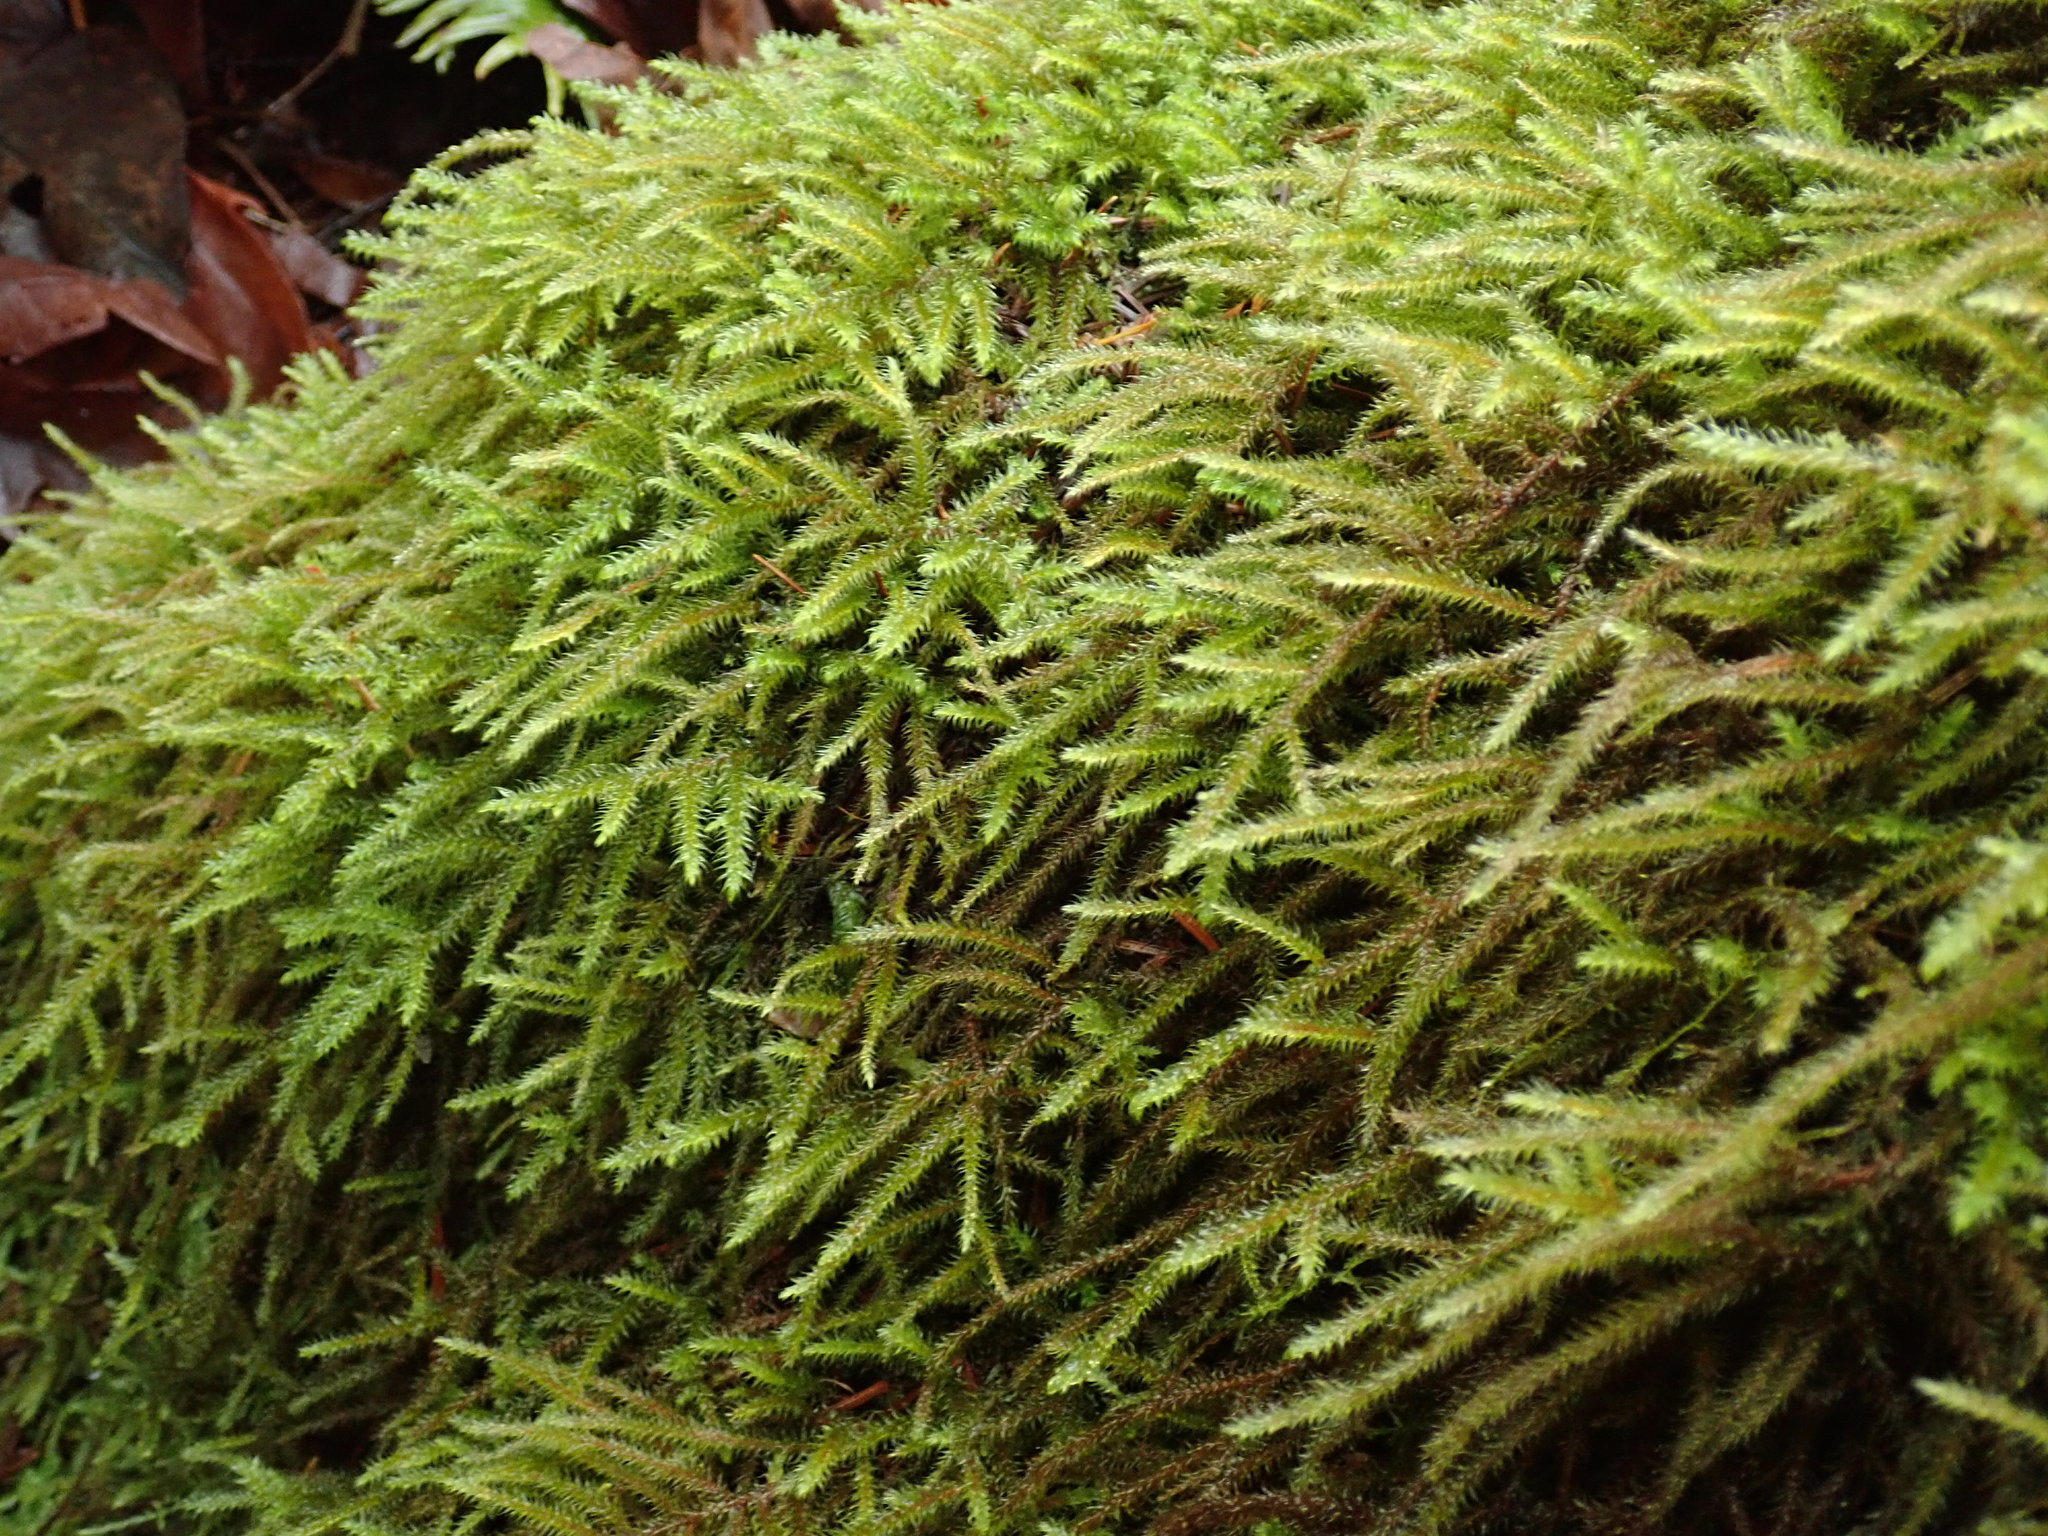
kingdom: Plantae
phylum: Bryophyta
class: Bryopsida
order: Hypnales
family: Hylocomiaceae
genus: Rhytidiadelphus
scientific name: Rhytidiadelphus loreus
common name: Lanky moss
